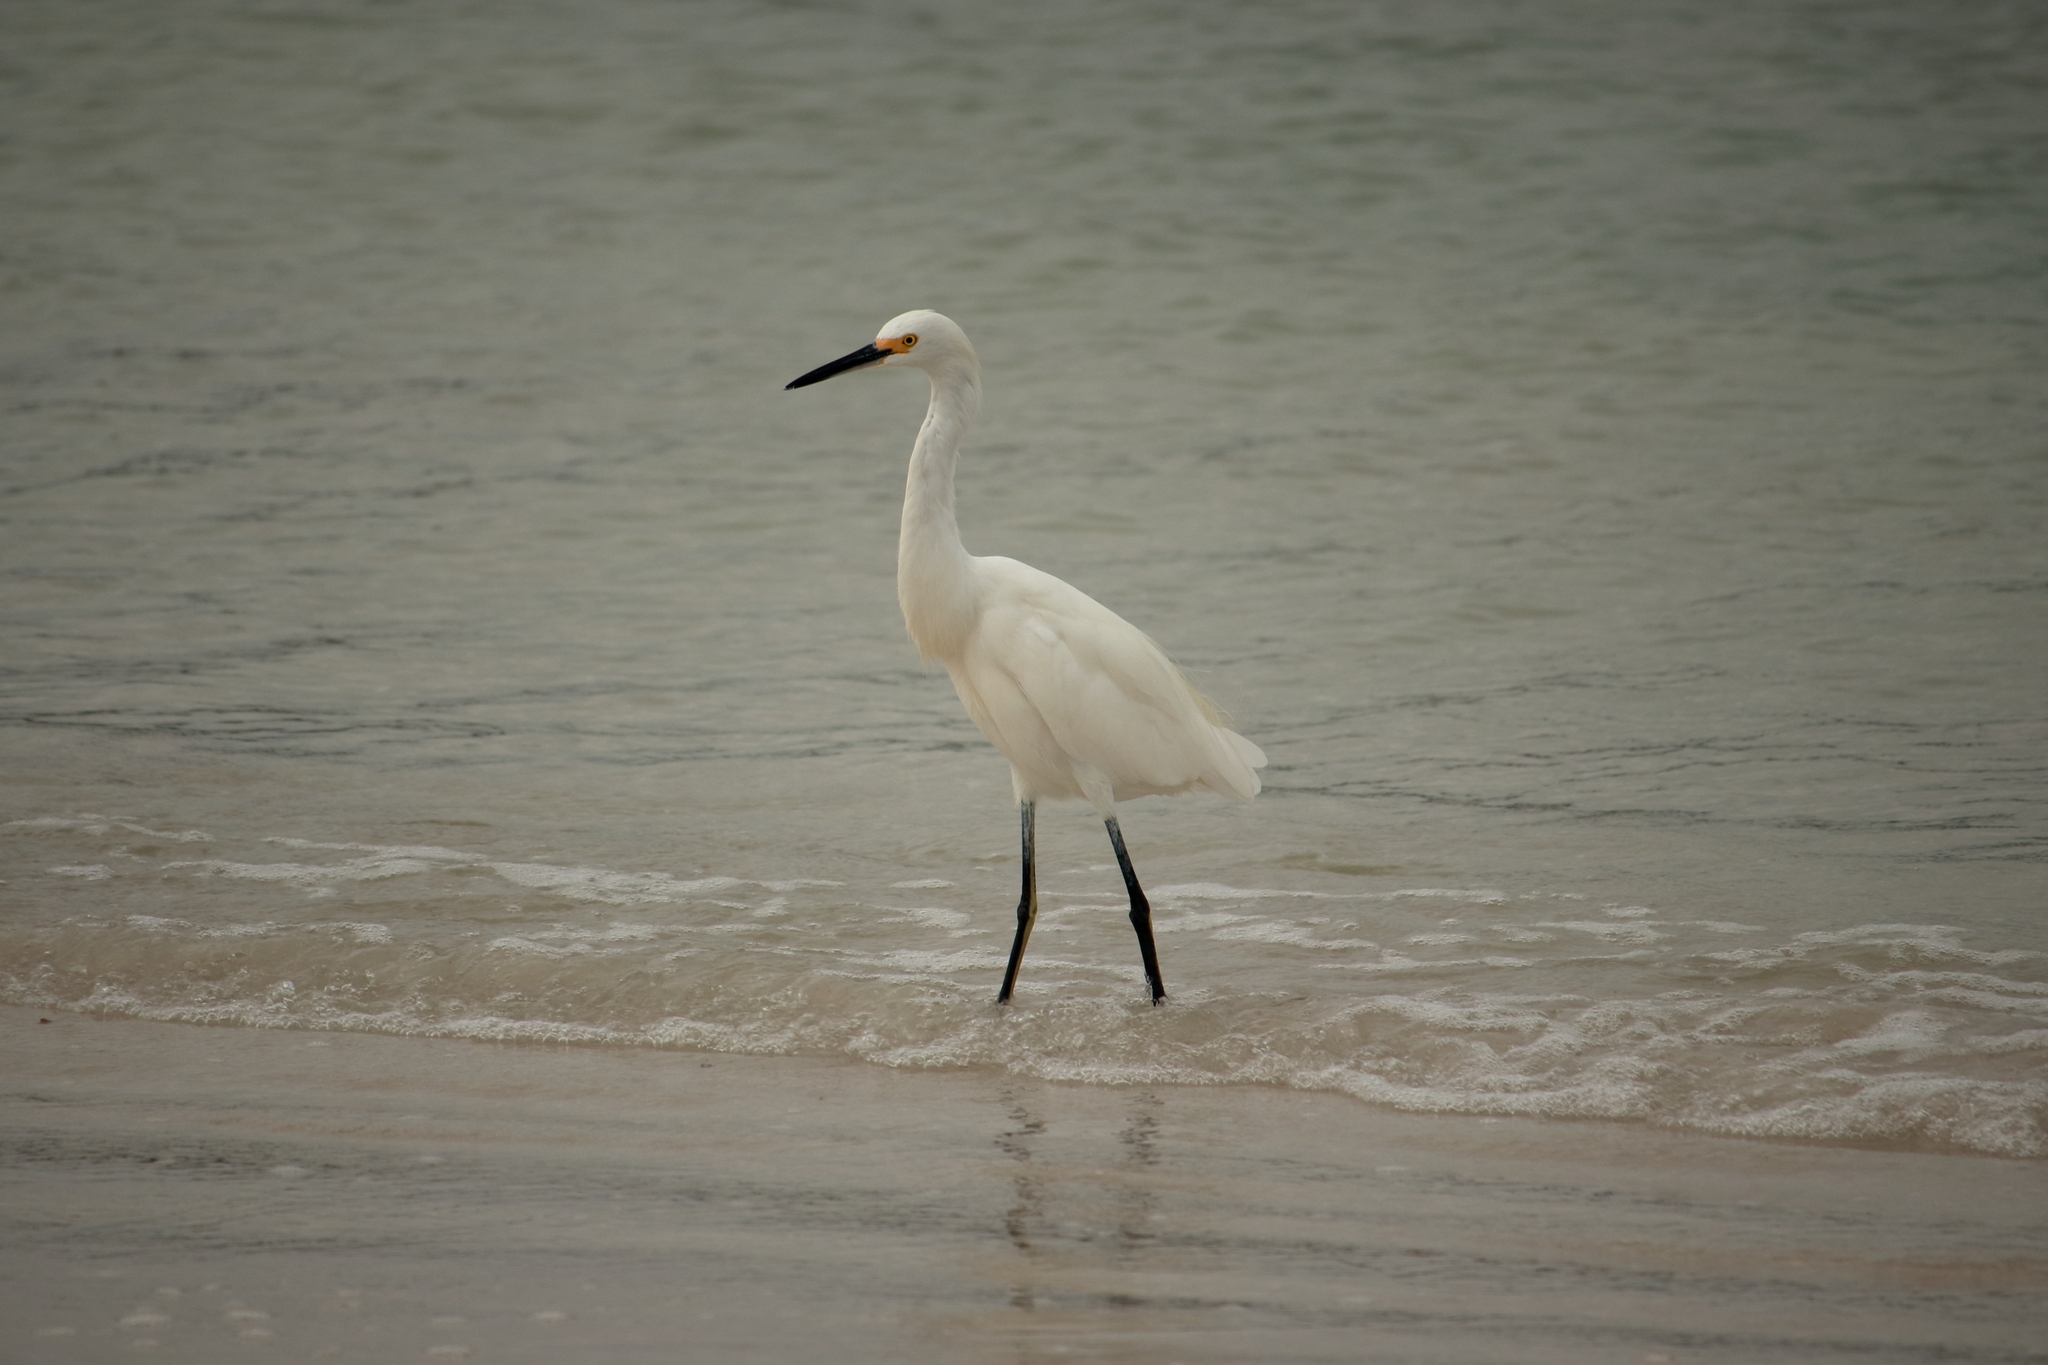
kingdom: Animalia
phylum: Chordata
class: Aves
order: Pelecaniformes
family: Ardeidae
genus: Egretta
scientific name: Egretta thula
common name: Snowy egret
